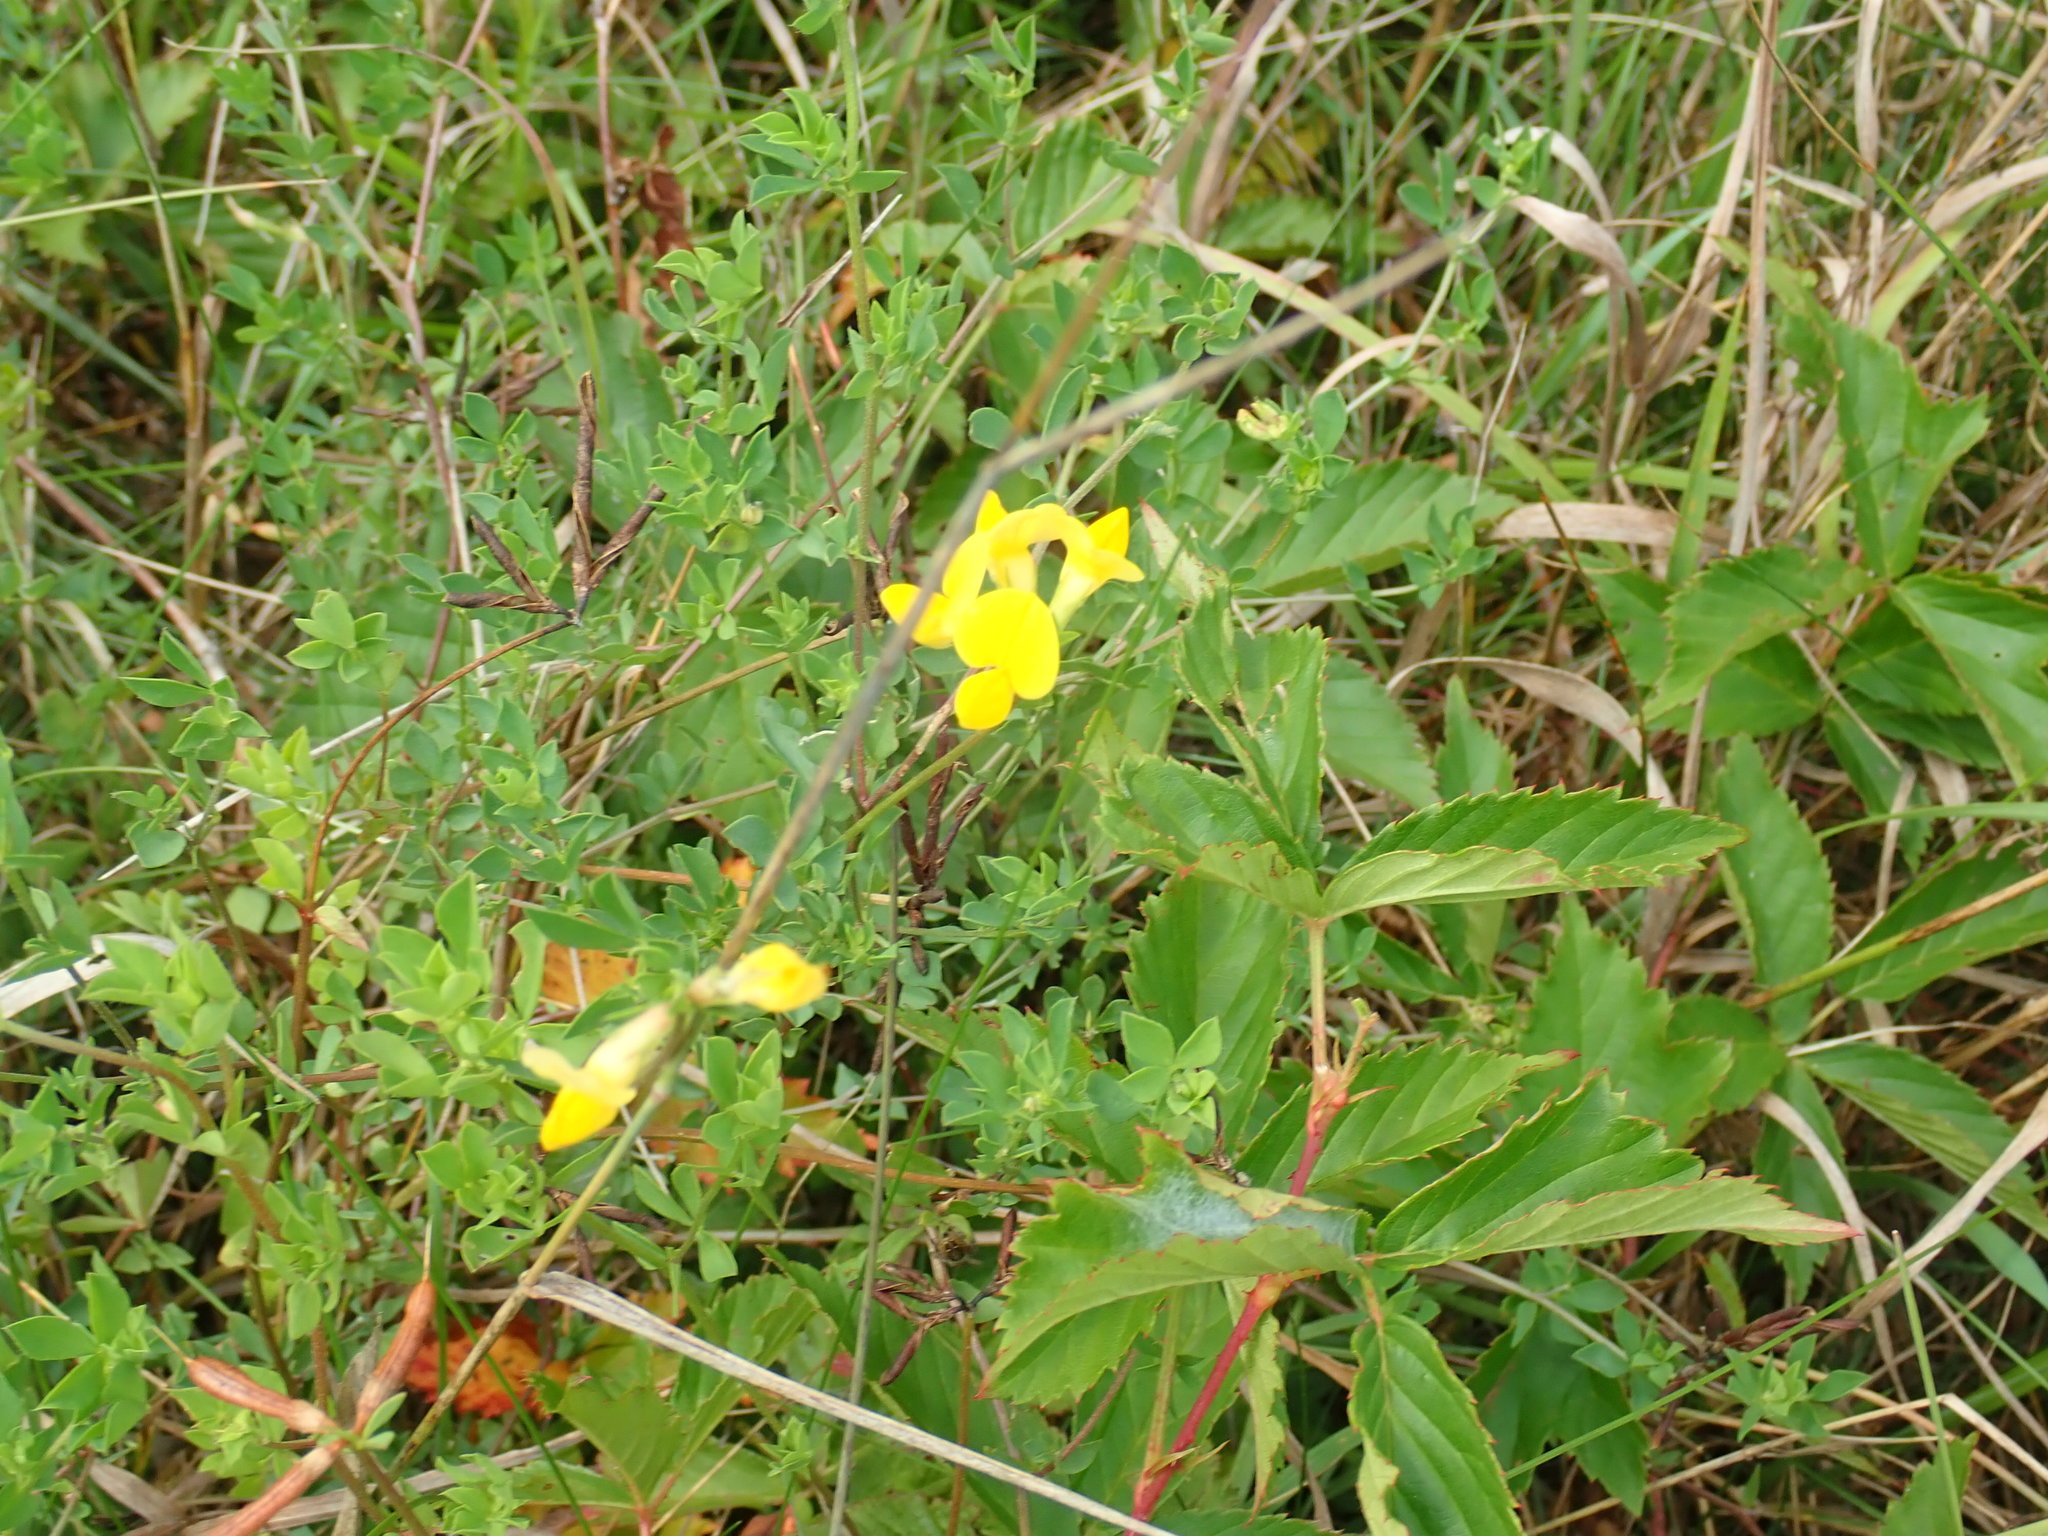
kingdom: Plantae
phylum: Tracheophyta
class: Magnoliopsida
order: Fabales
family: Fabaceae
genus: Lotus
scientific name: Lotus corniculatus
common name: Common bird's-foot-trefoil
